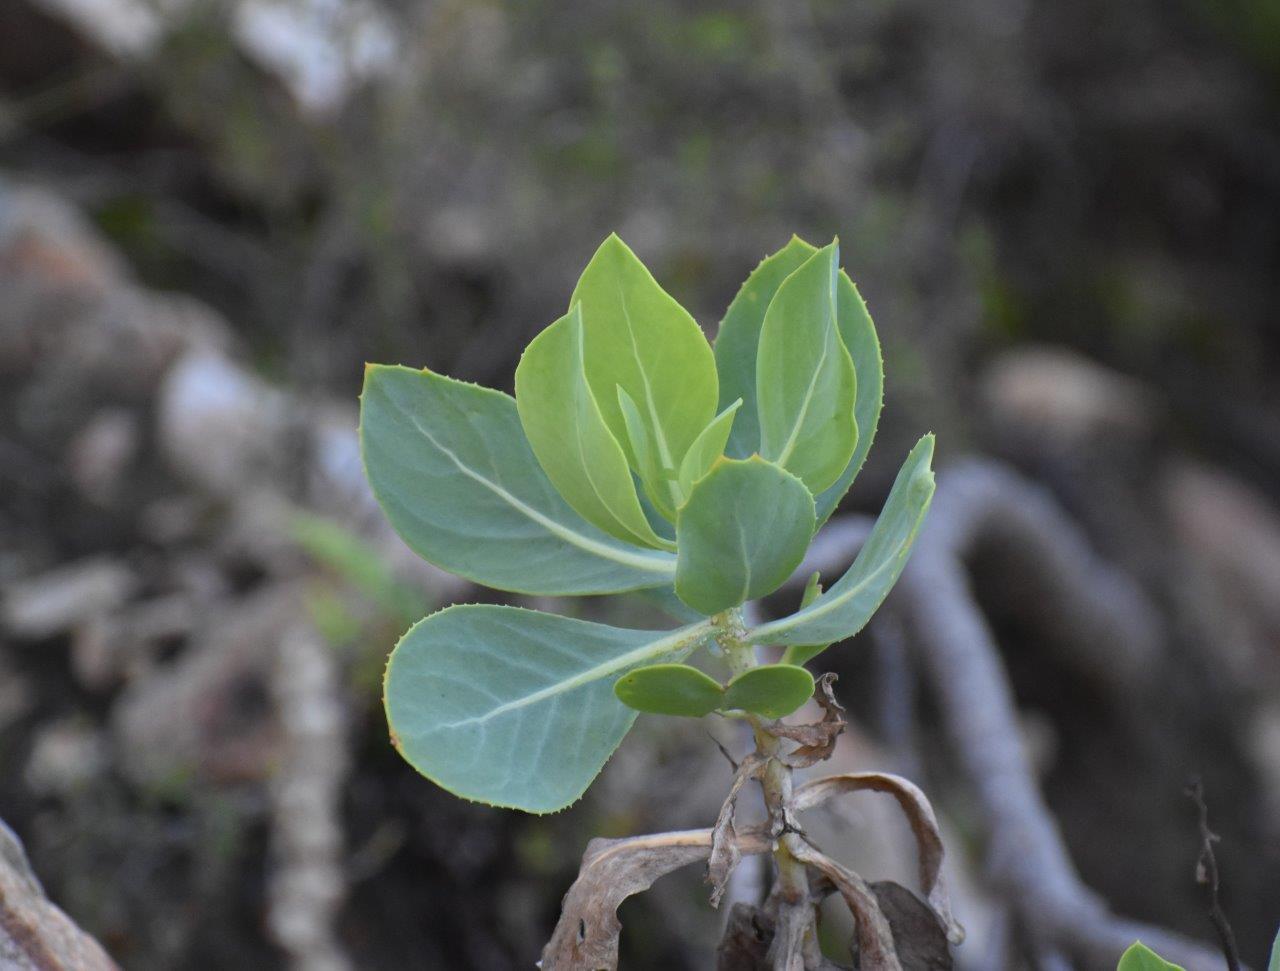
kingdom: Plantae
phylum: Tracheophyta
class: Magnoliopsida
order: Asterales
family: Asteraceae
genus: Othonna
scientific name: Othonna parviflora
